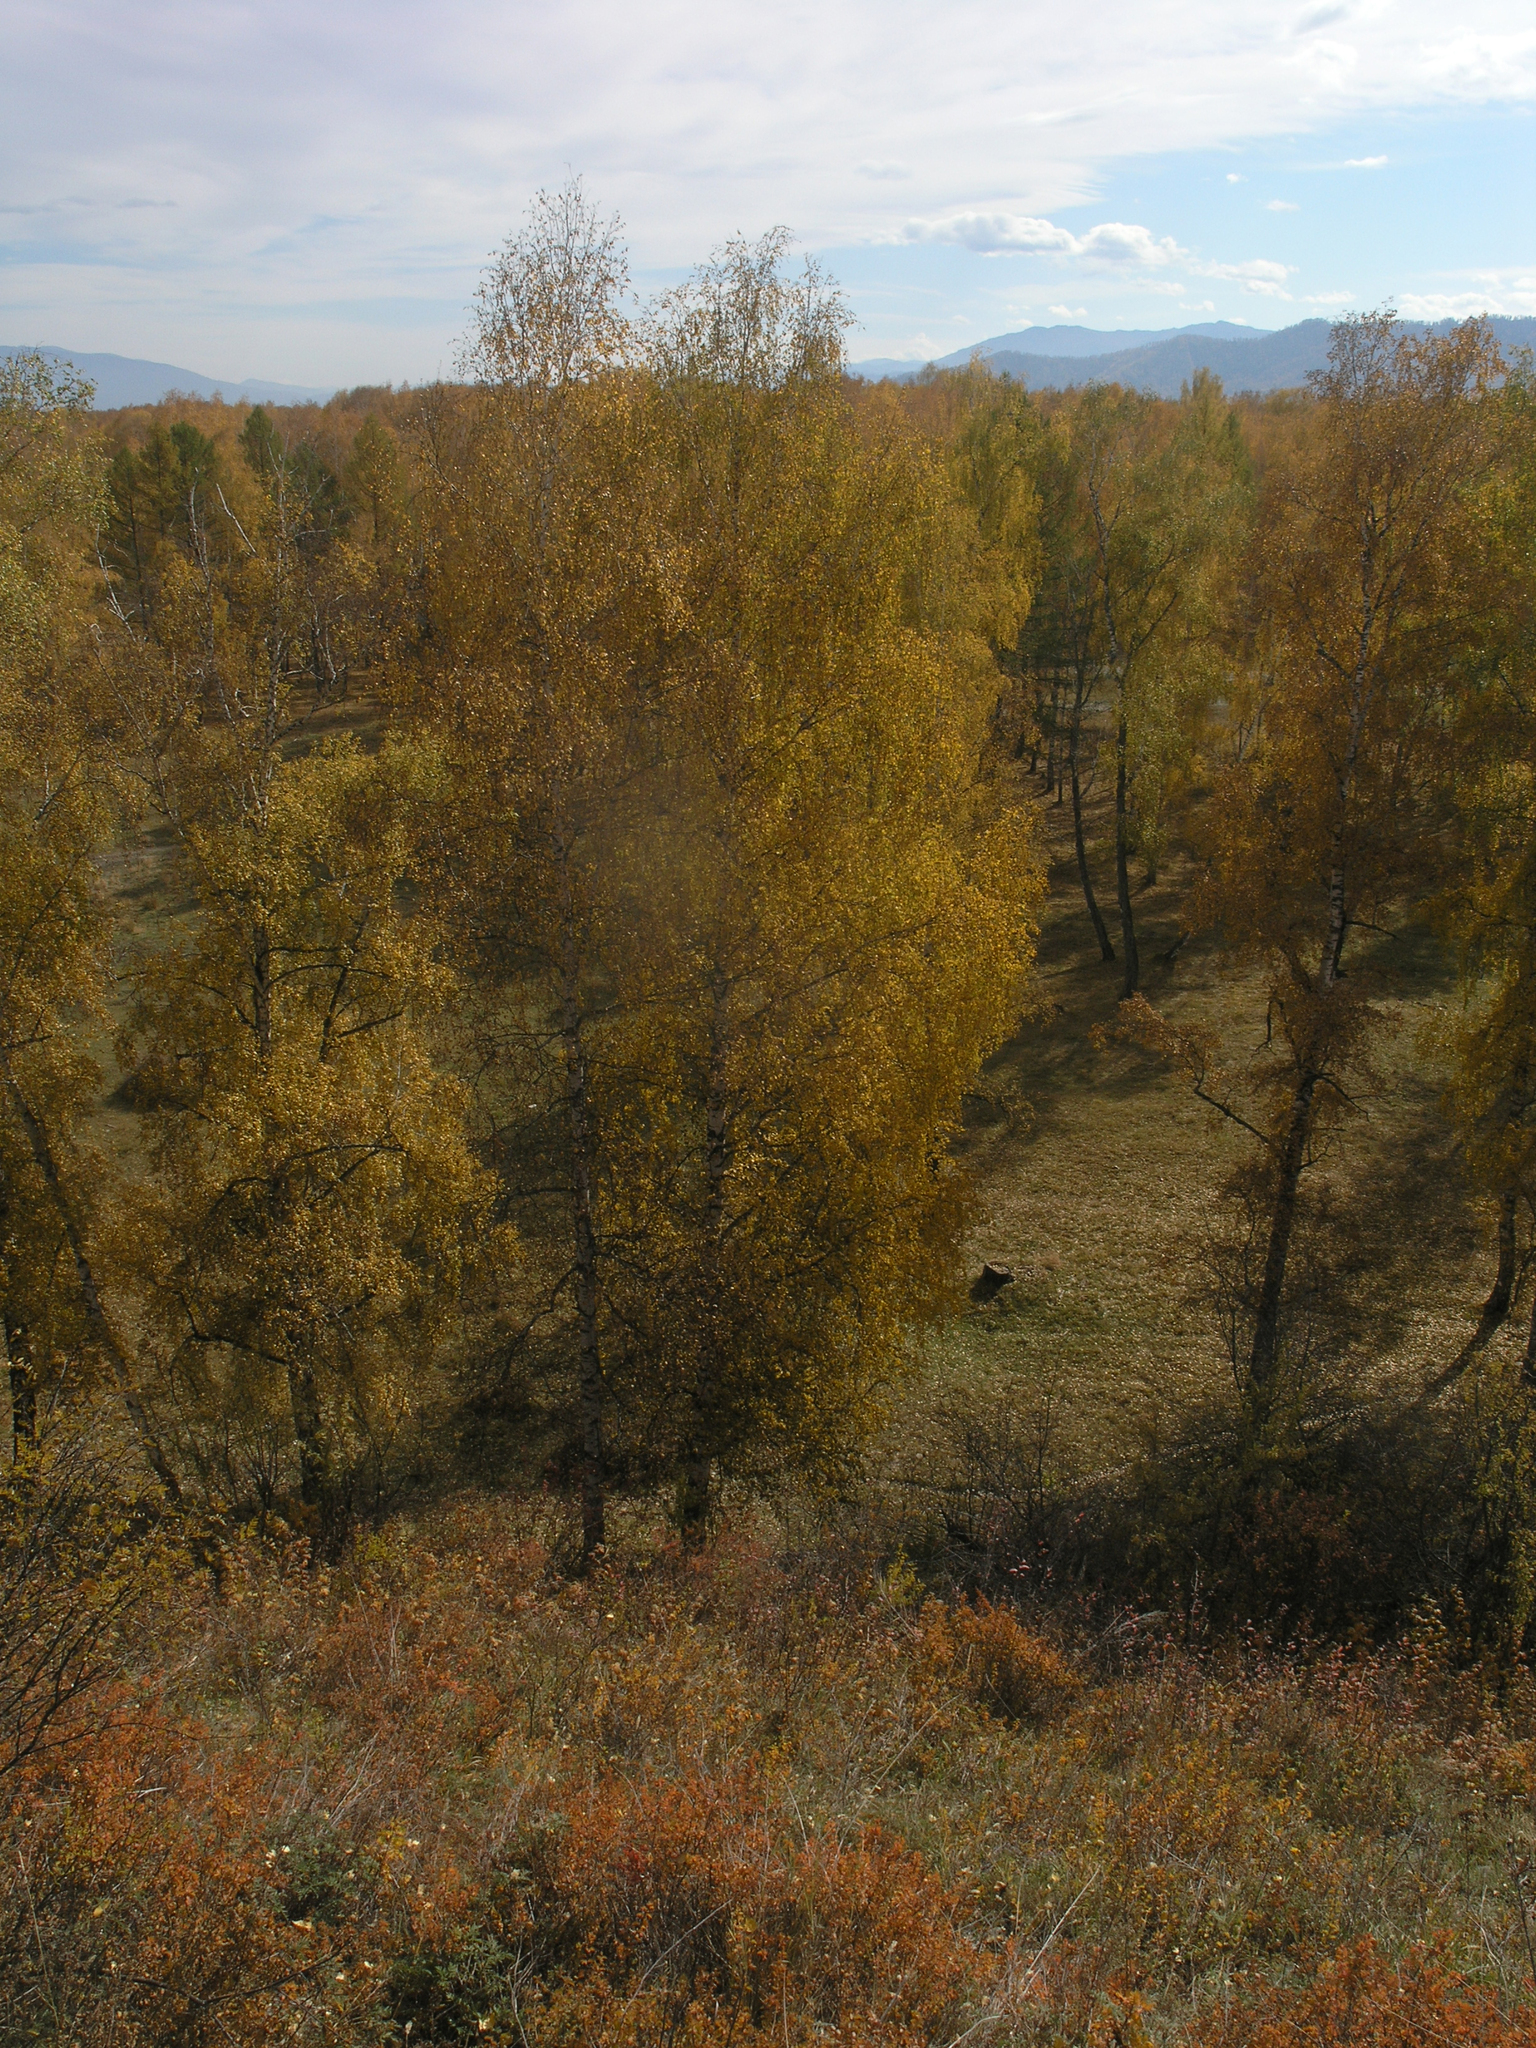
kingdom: Plantae
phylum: Tracheophyta
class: Magnoliopsida
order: Fagales
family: Betulaceae
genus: Betula
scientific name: Betula pendula
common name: Silver birch
